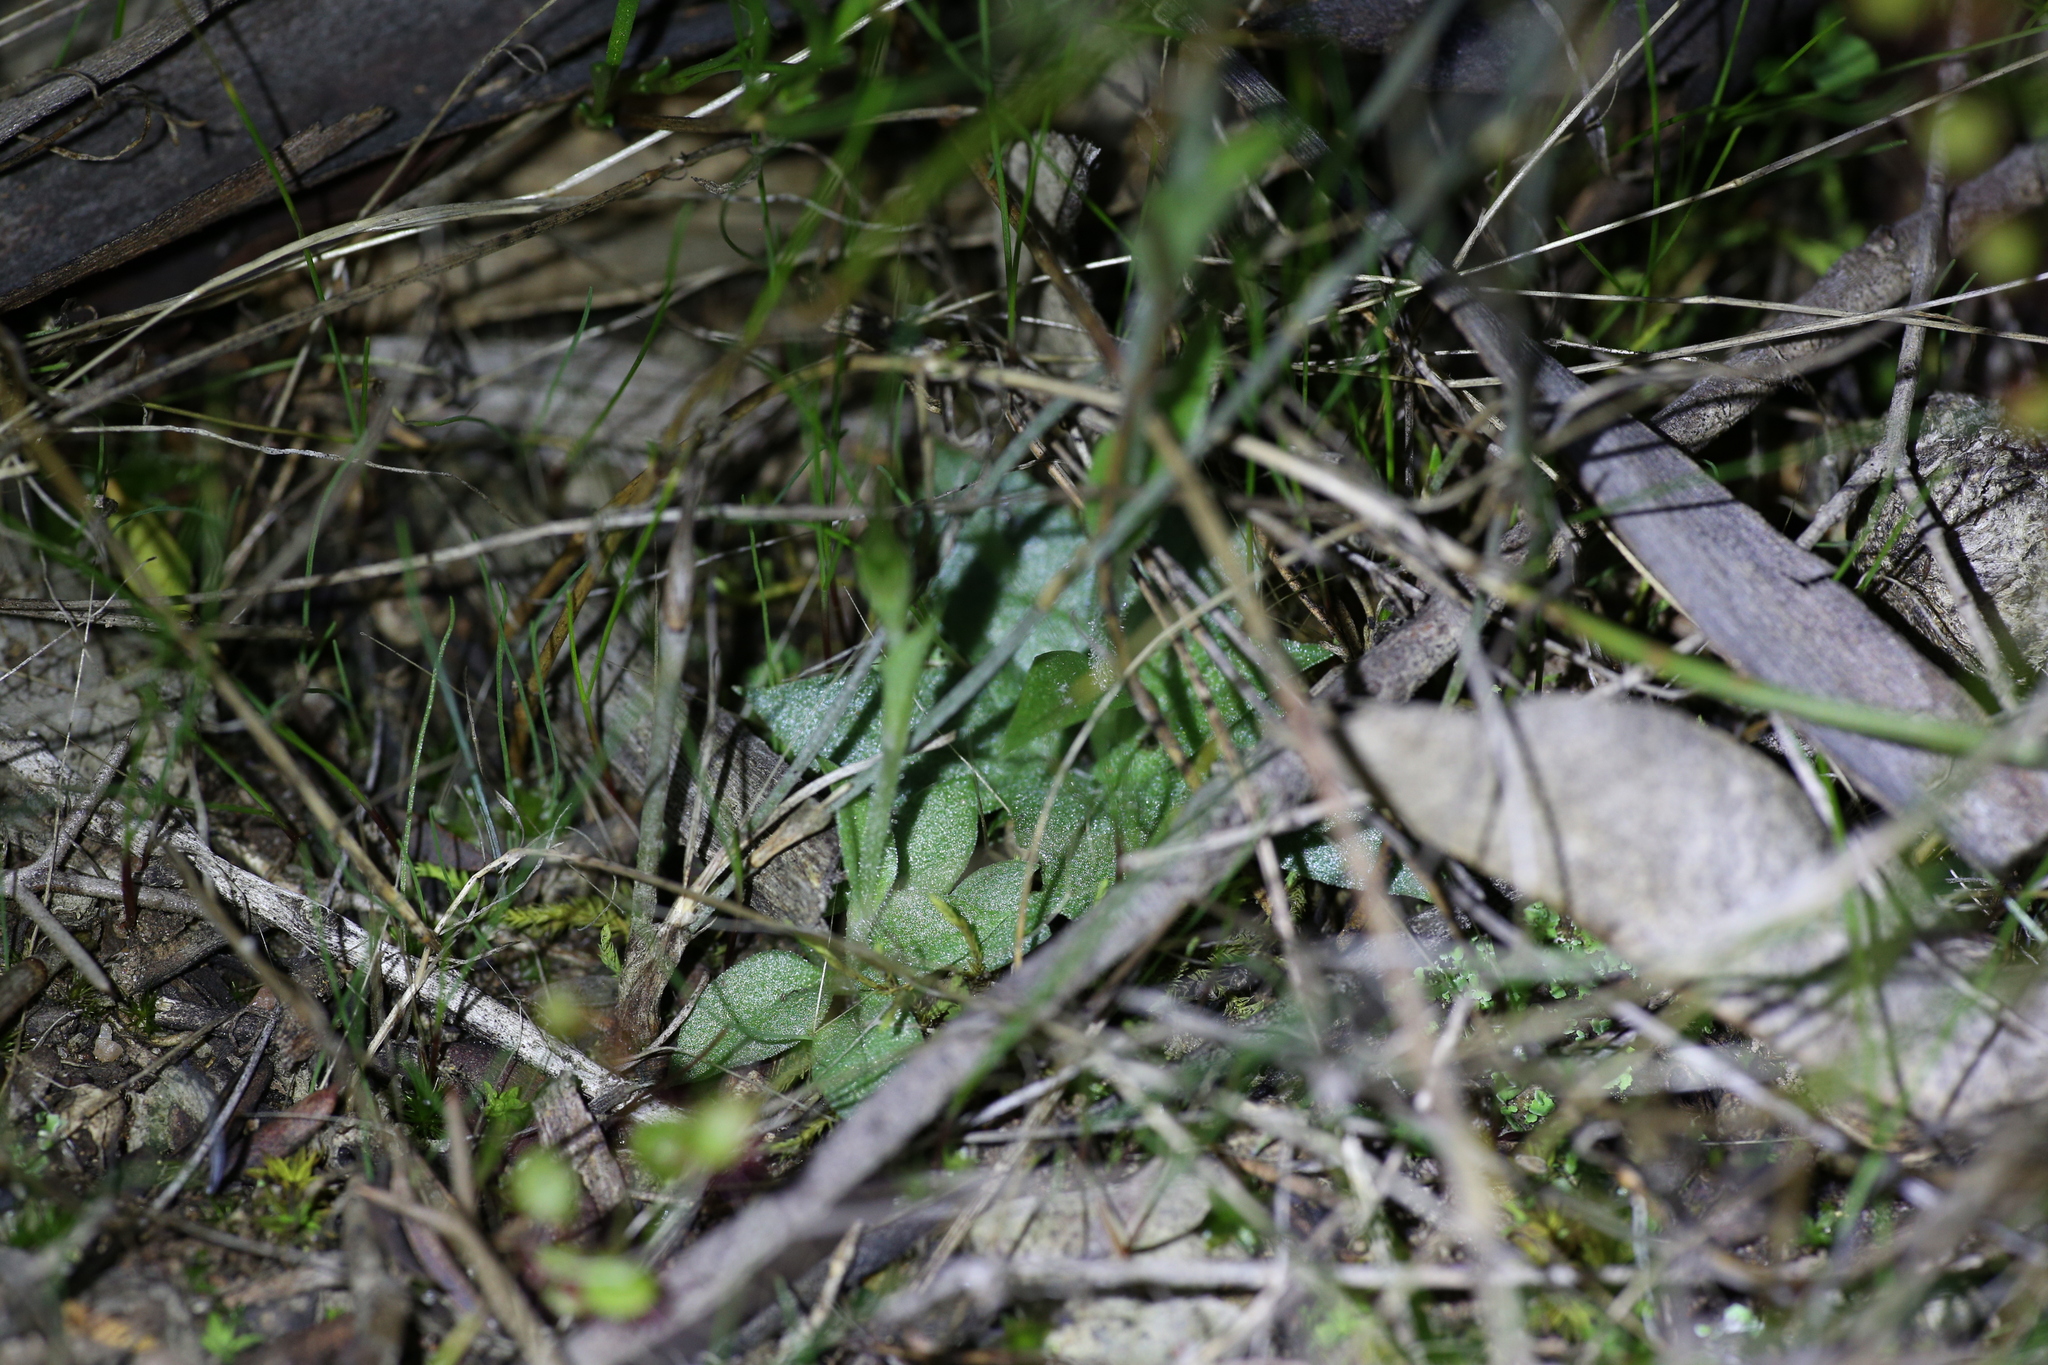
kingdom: Plantae
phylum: Tracheophyta
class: Liliopsida
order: Asparagales
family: Orchidaceae
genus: Pterostylis
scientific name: Pterostylis setulosa
